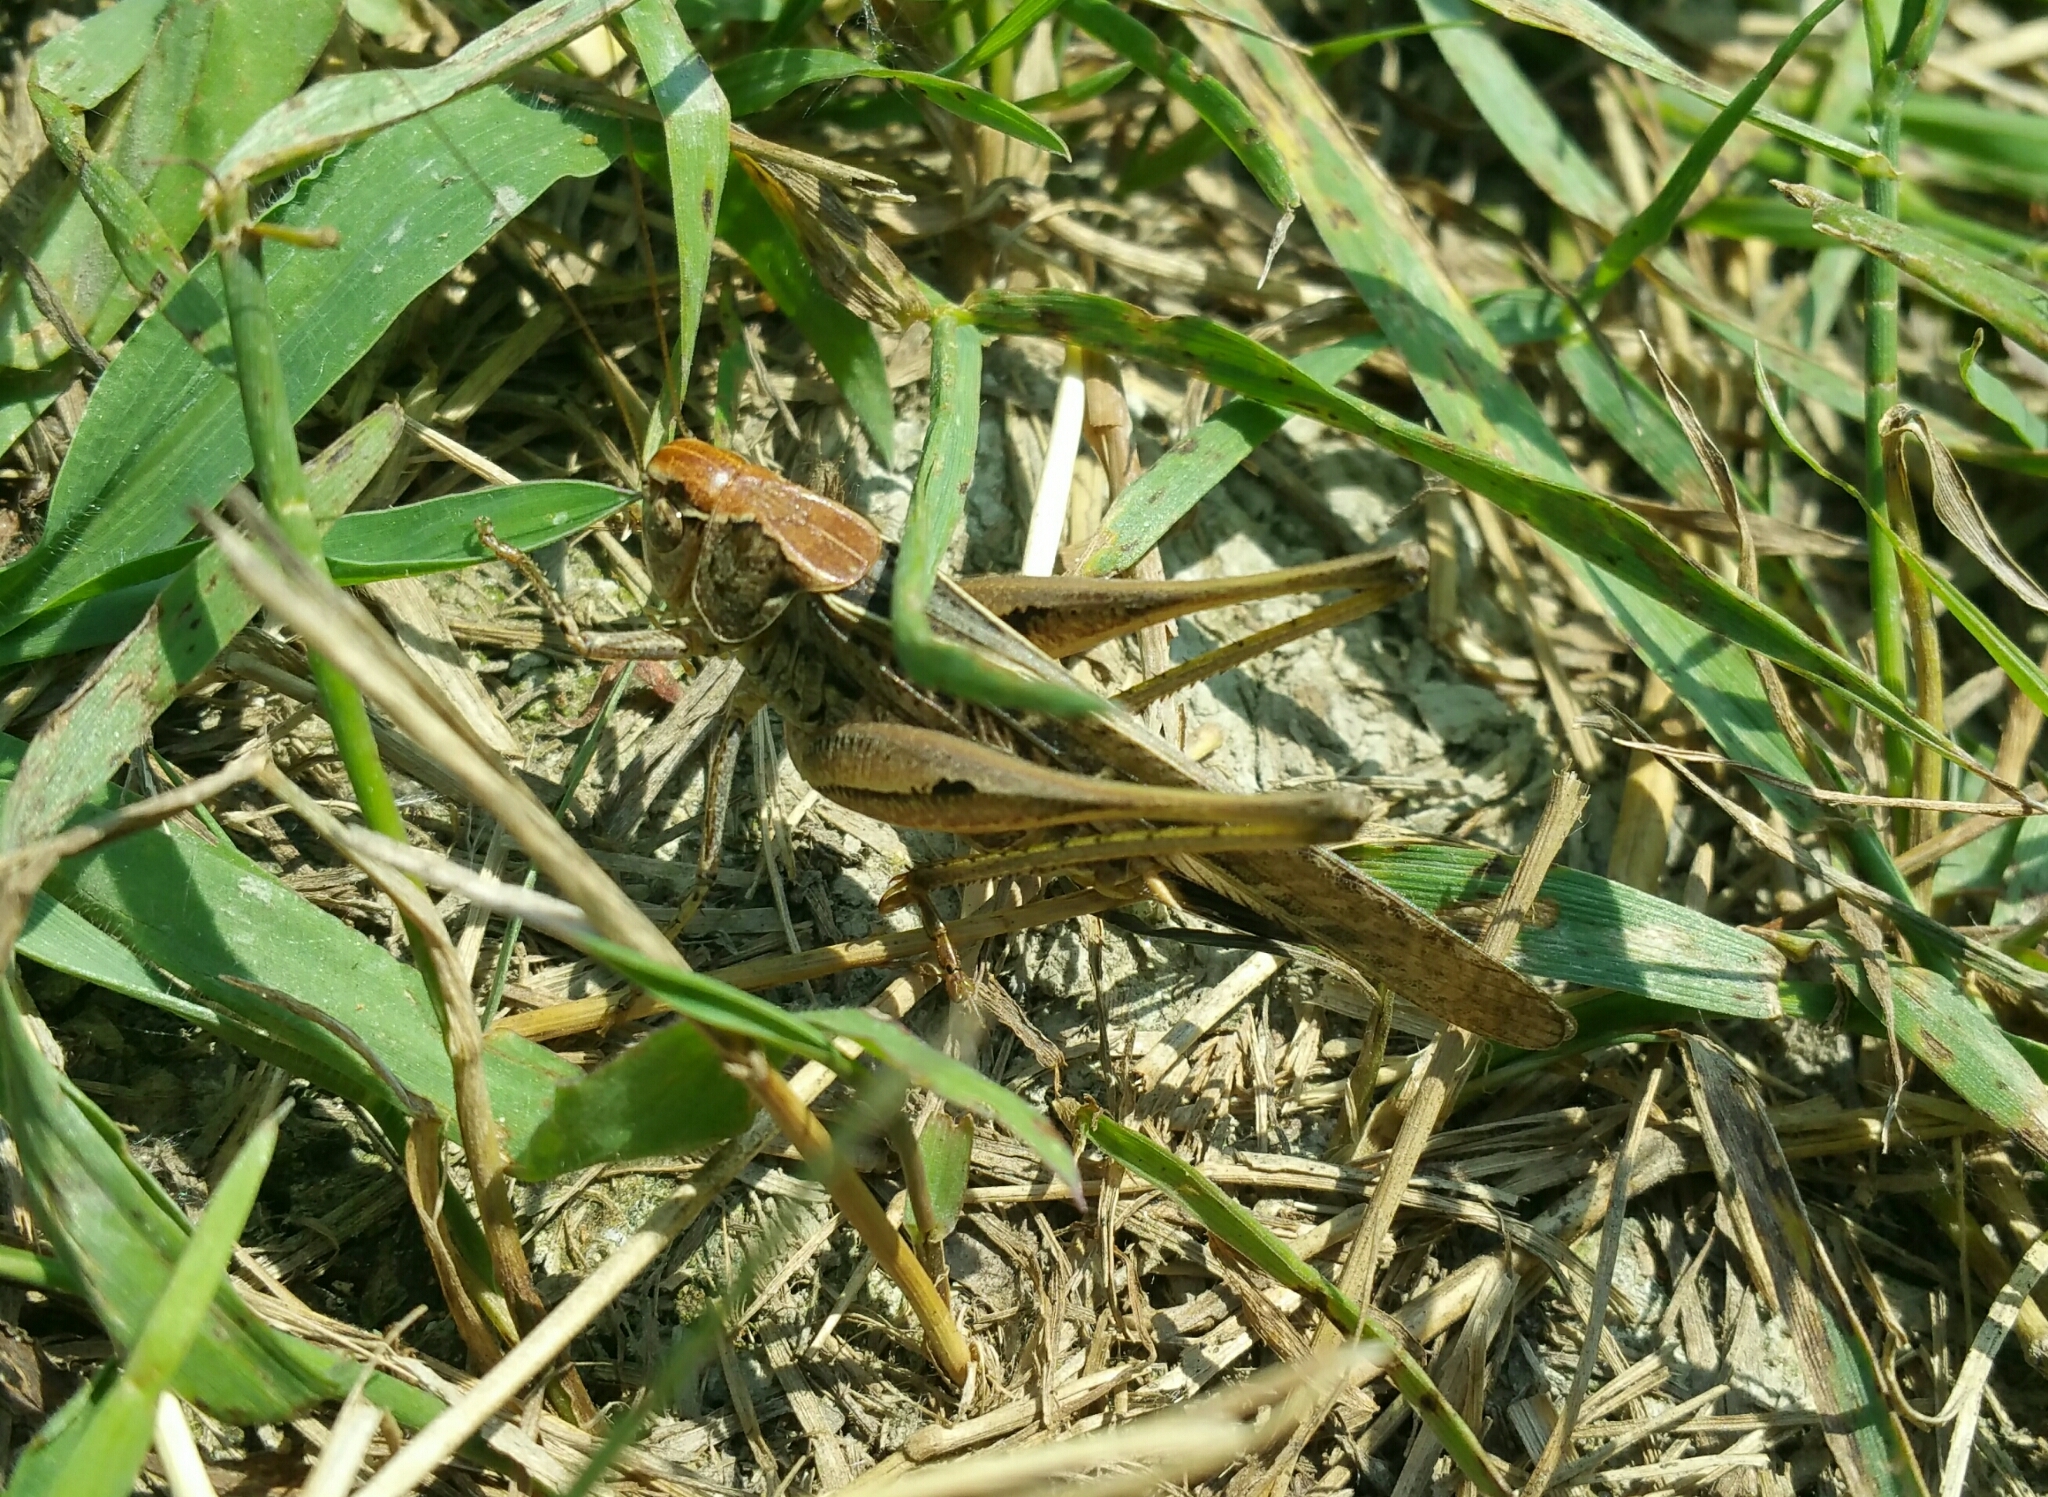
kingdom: Animalia
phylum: Arthropoda
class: Insecta
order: Orthoptera
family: Tettigoniidae
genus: Platycleis
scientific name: Platycleis affinis
